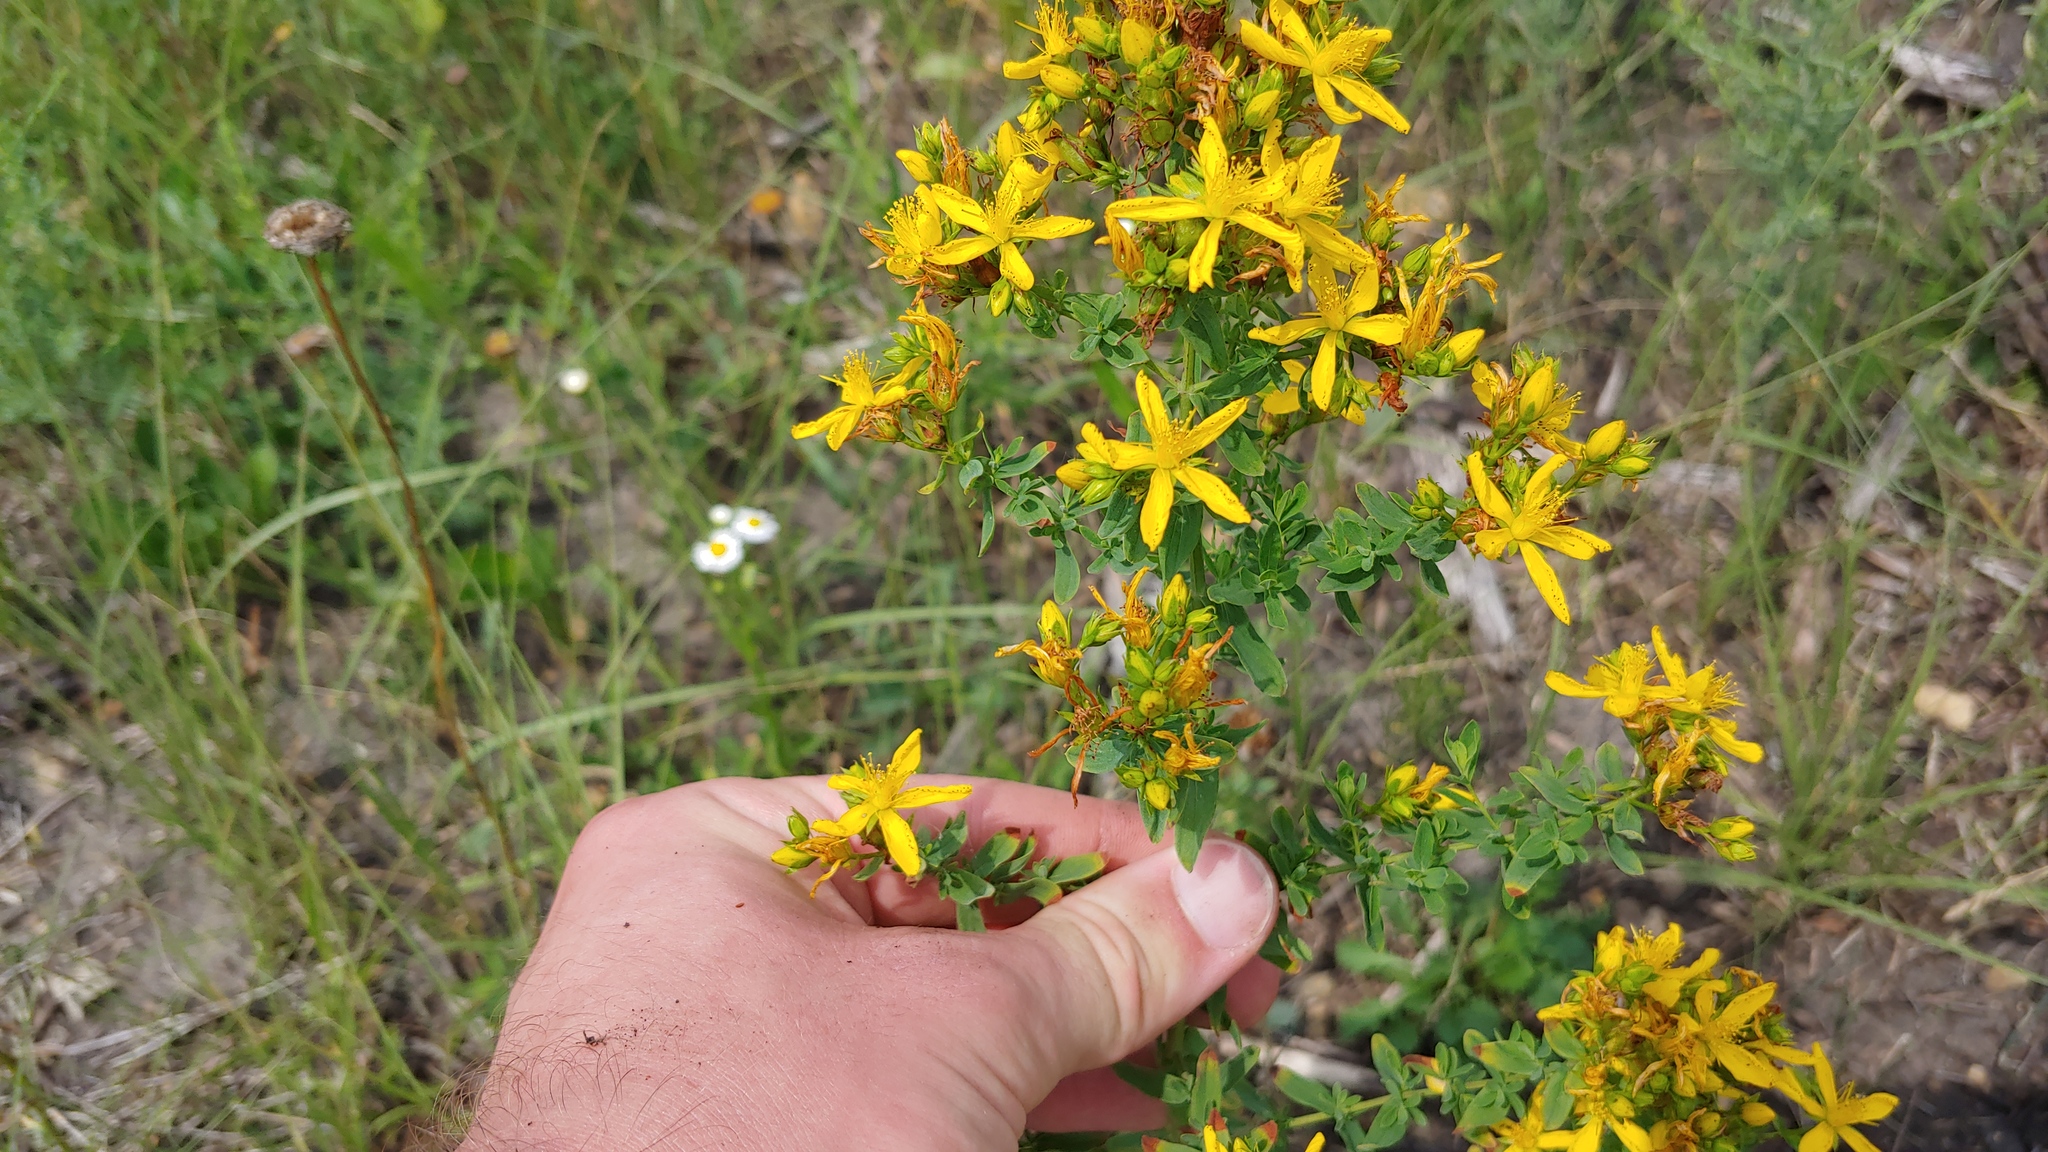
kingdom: Plantae
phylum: Tracheophyta
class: Magnoliopsida
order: Malpighiales
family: Hypericaceae
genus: Hypericum
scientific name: Hypericum perforatum
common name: Common st. johnswort
